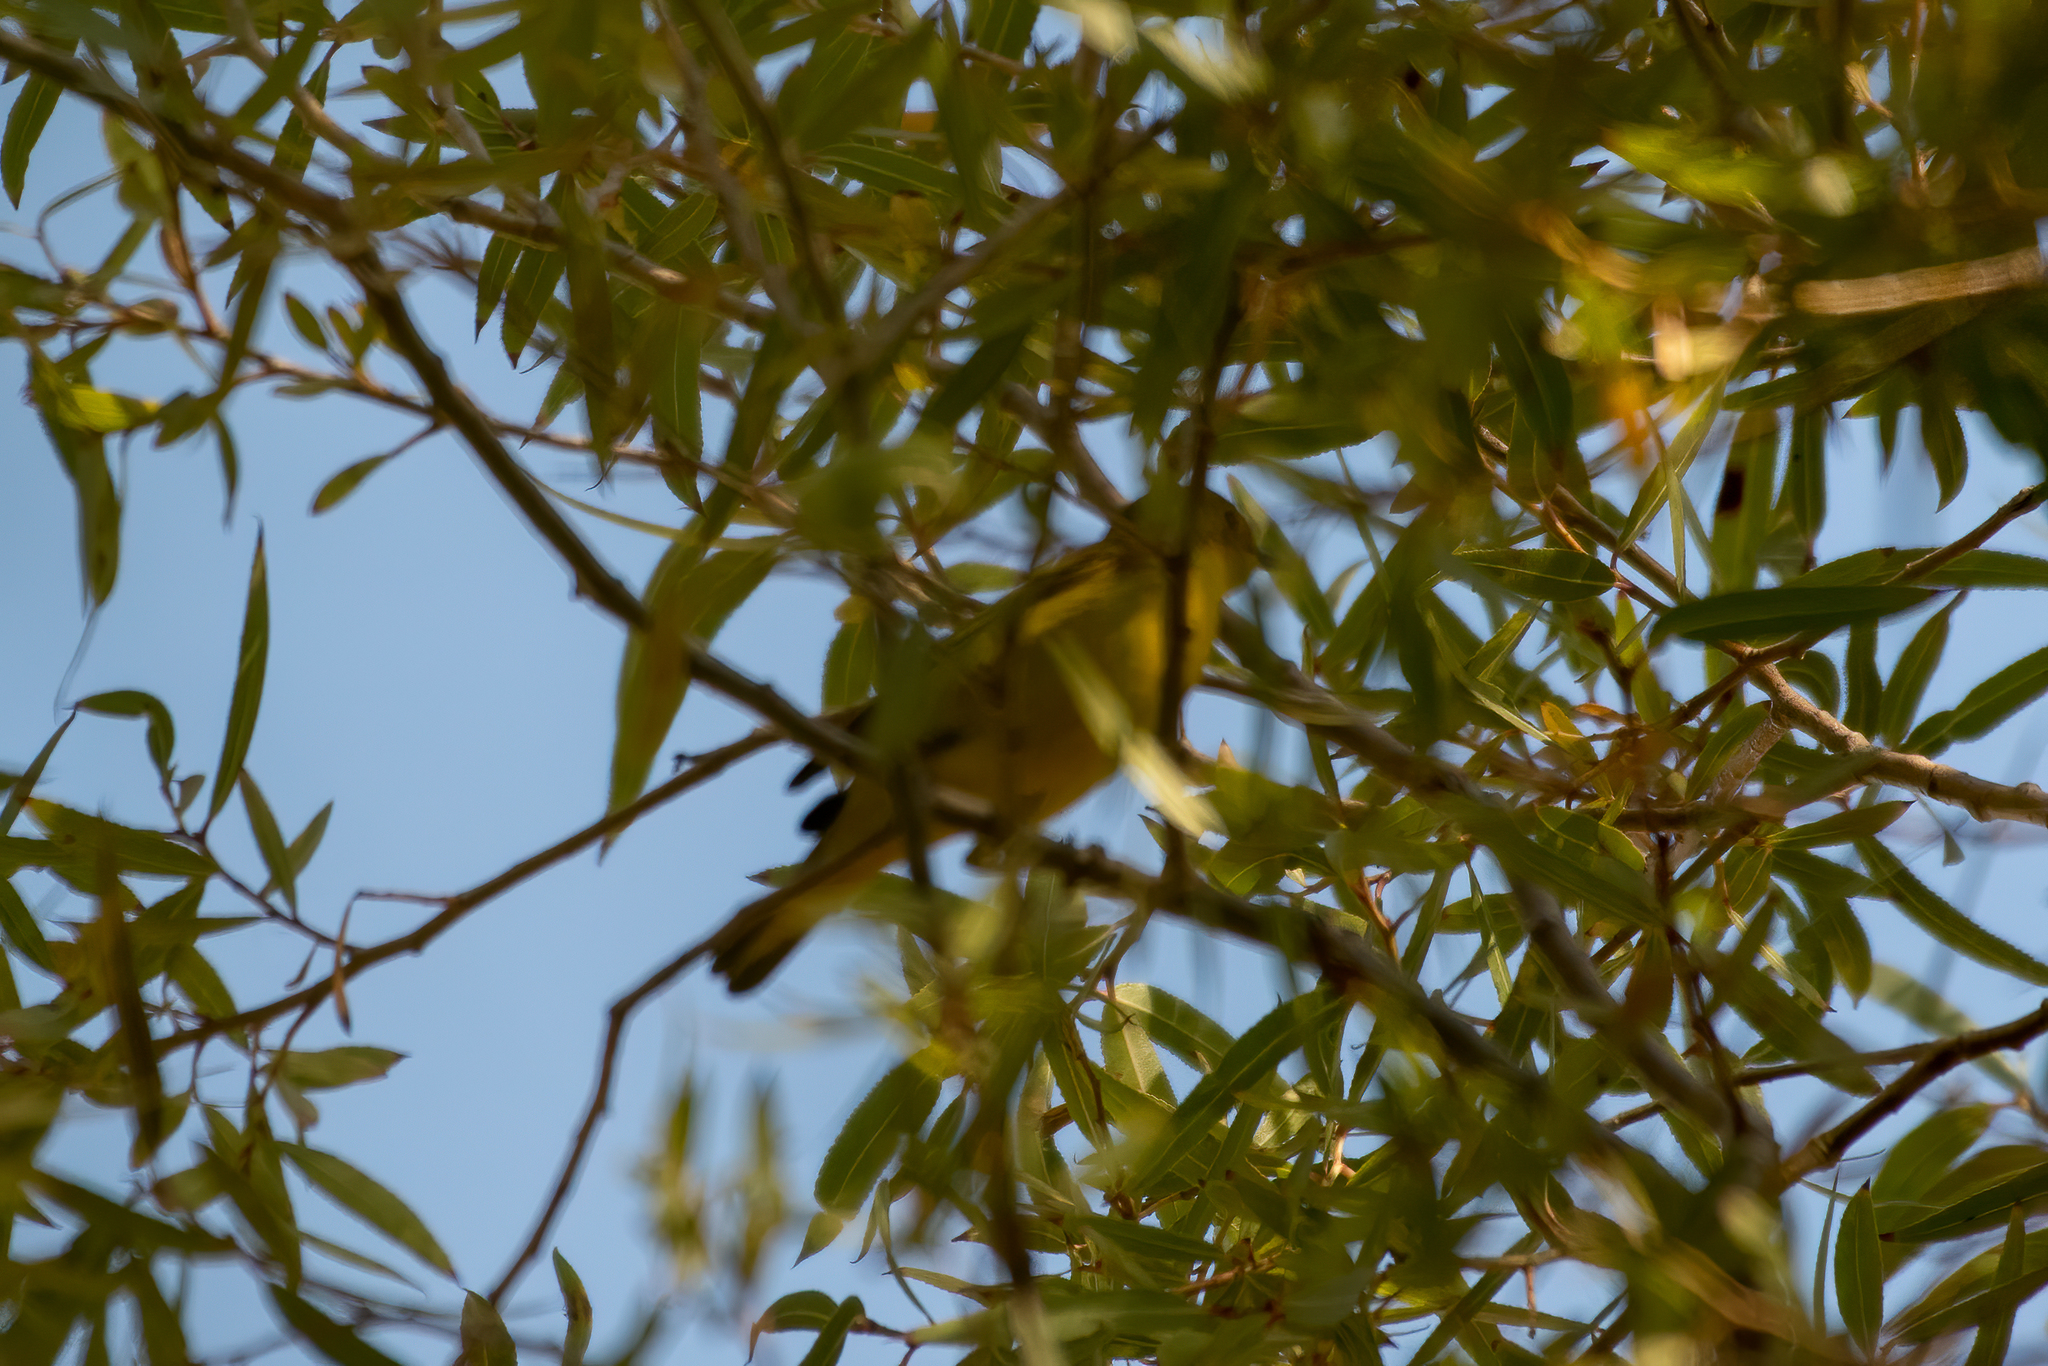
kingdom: Animalia
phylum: Chordata
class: Aves
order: Passeriformes
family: Parulidae
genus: Cardellina
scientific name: Cardellina pusilla
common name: Wilson's warbler
